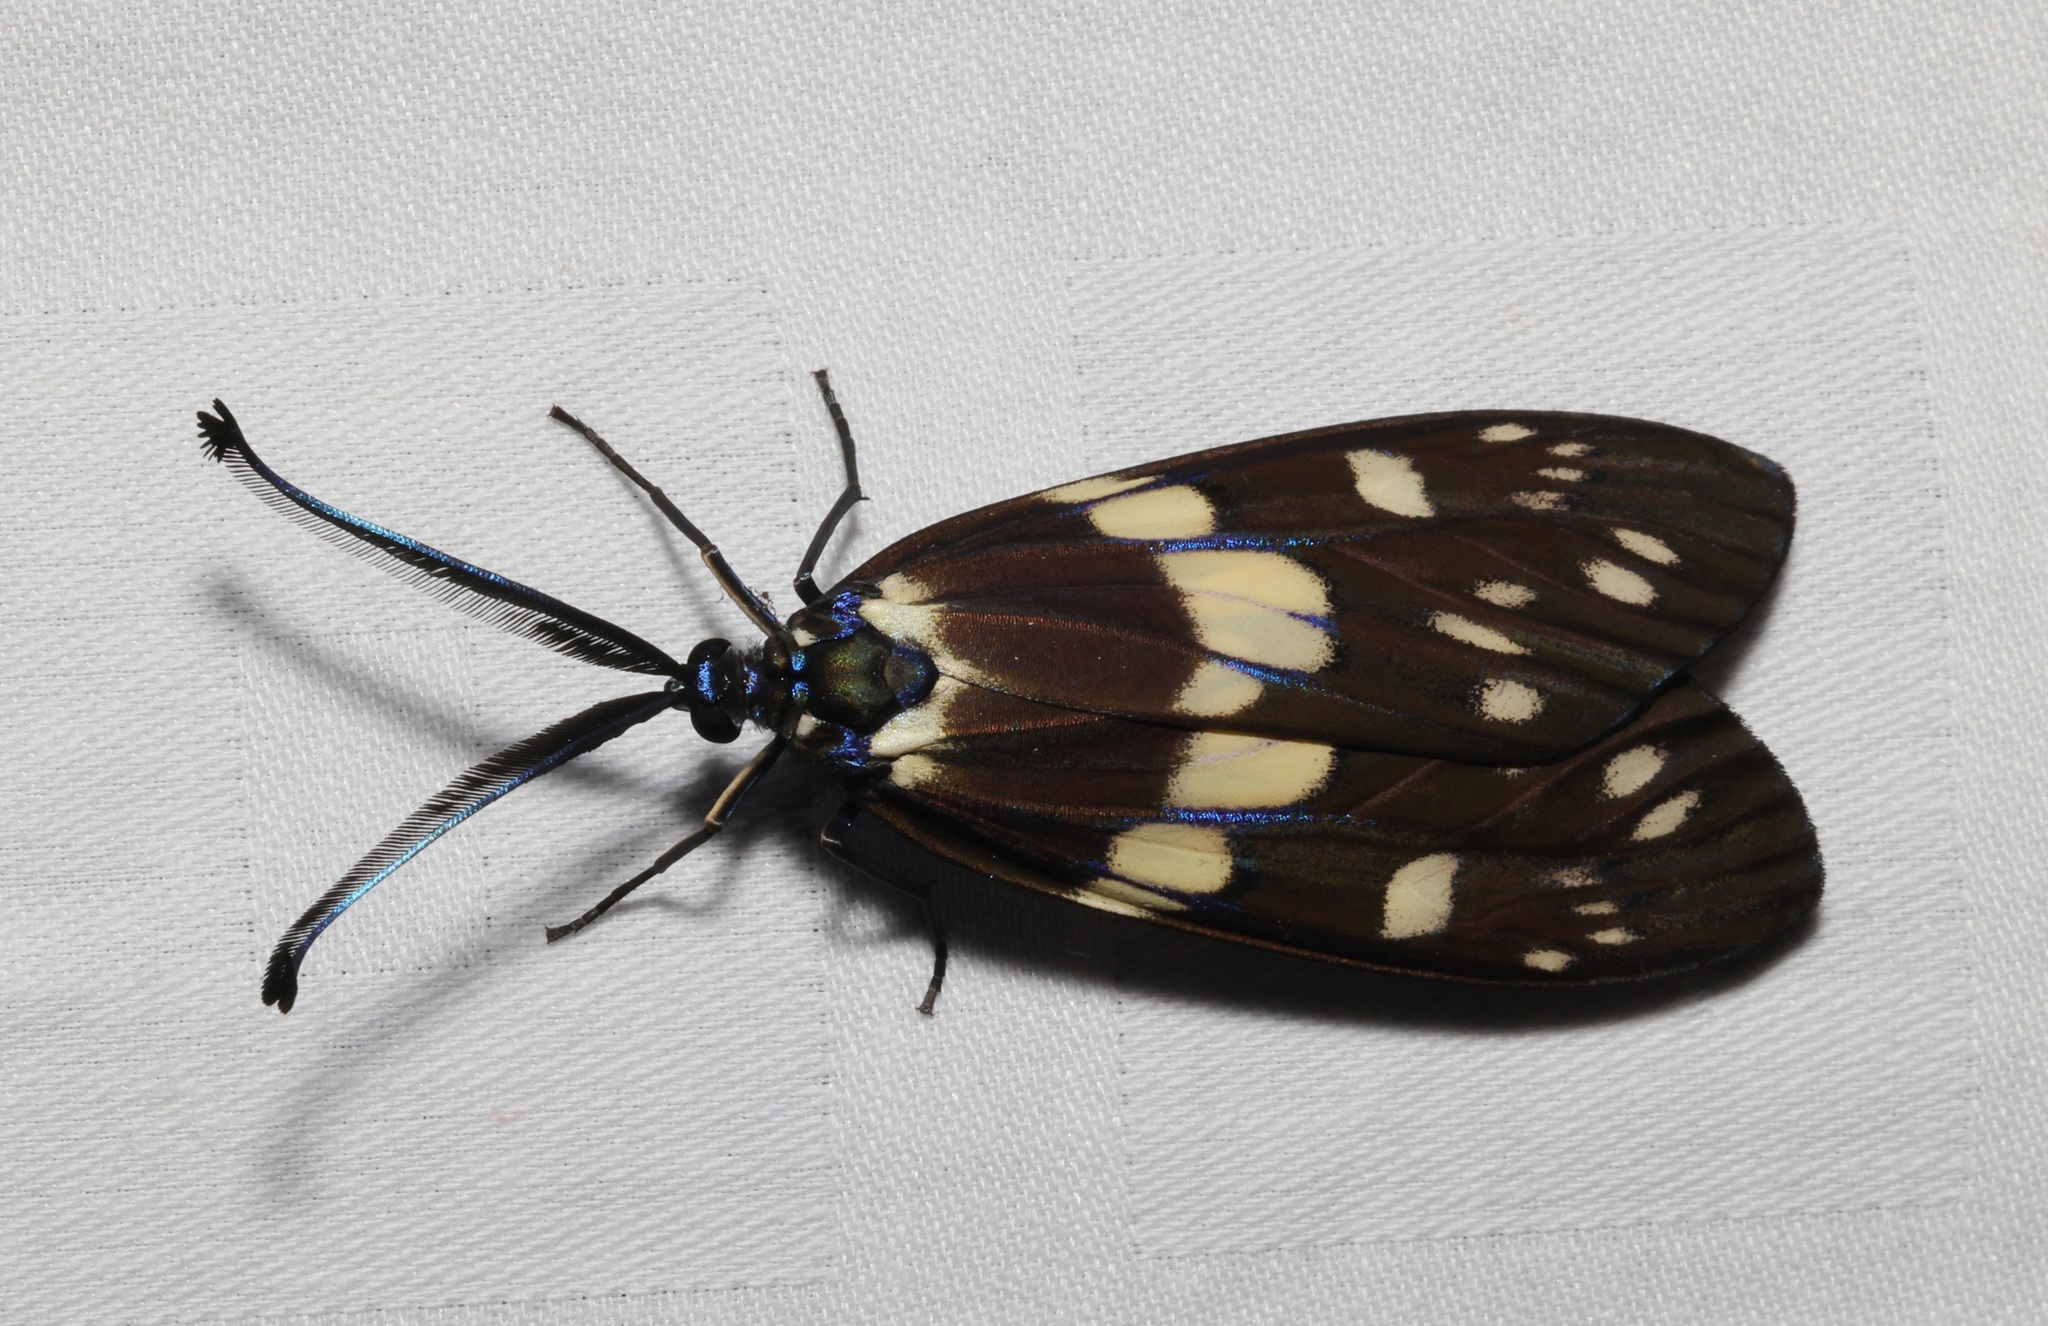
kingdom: Animalia
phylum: Arthropoda
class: Insecta
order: Lepidoptera
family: Zygaenidae
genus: Eterusia
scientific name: Eterusia aedea
